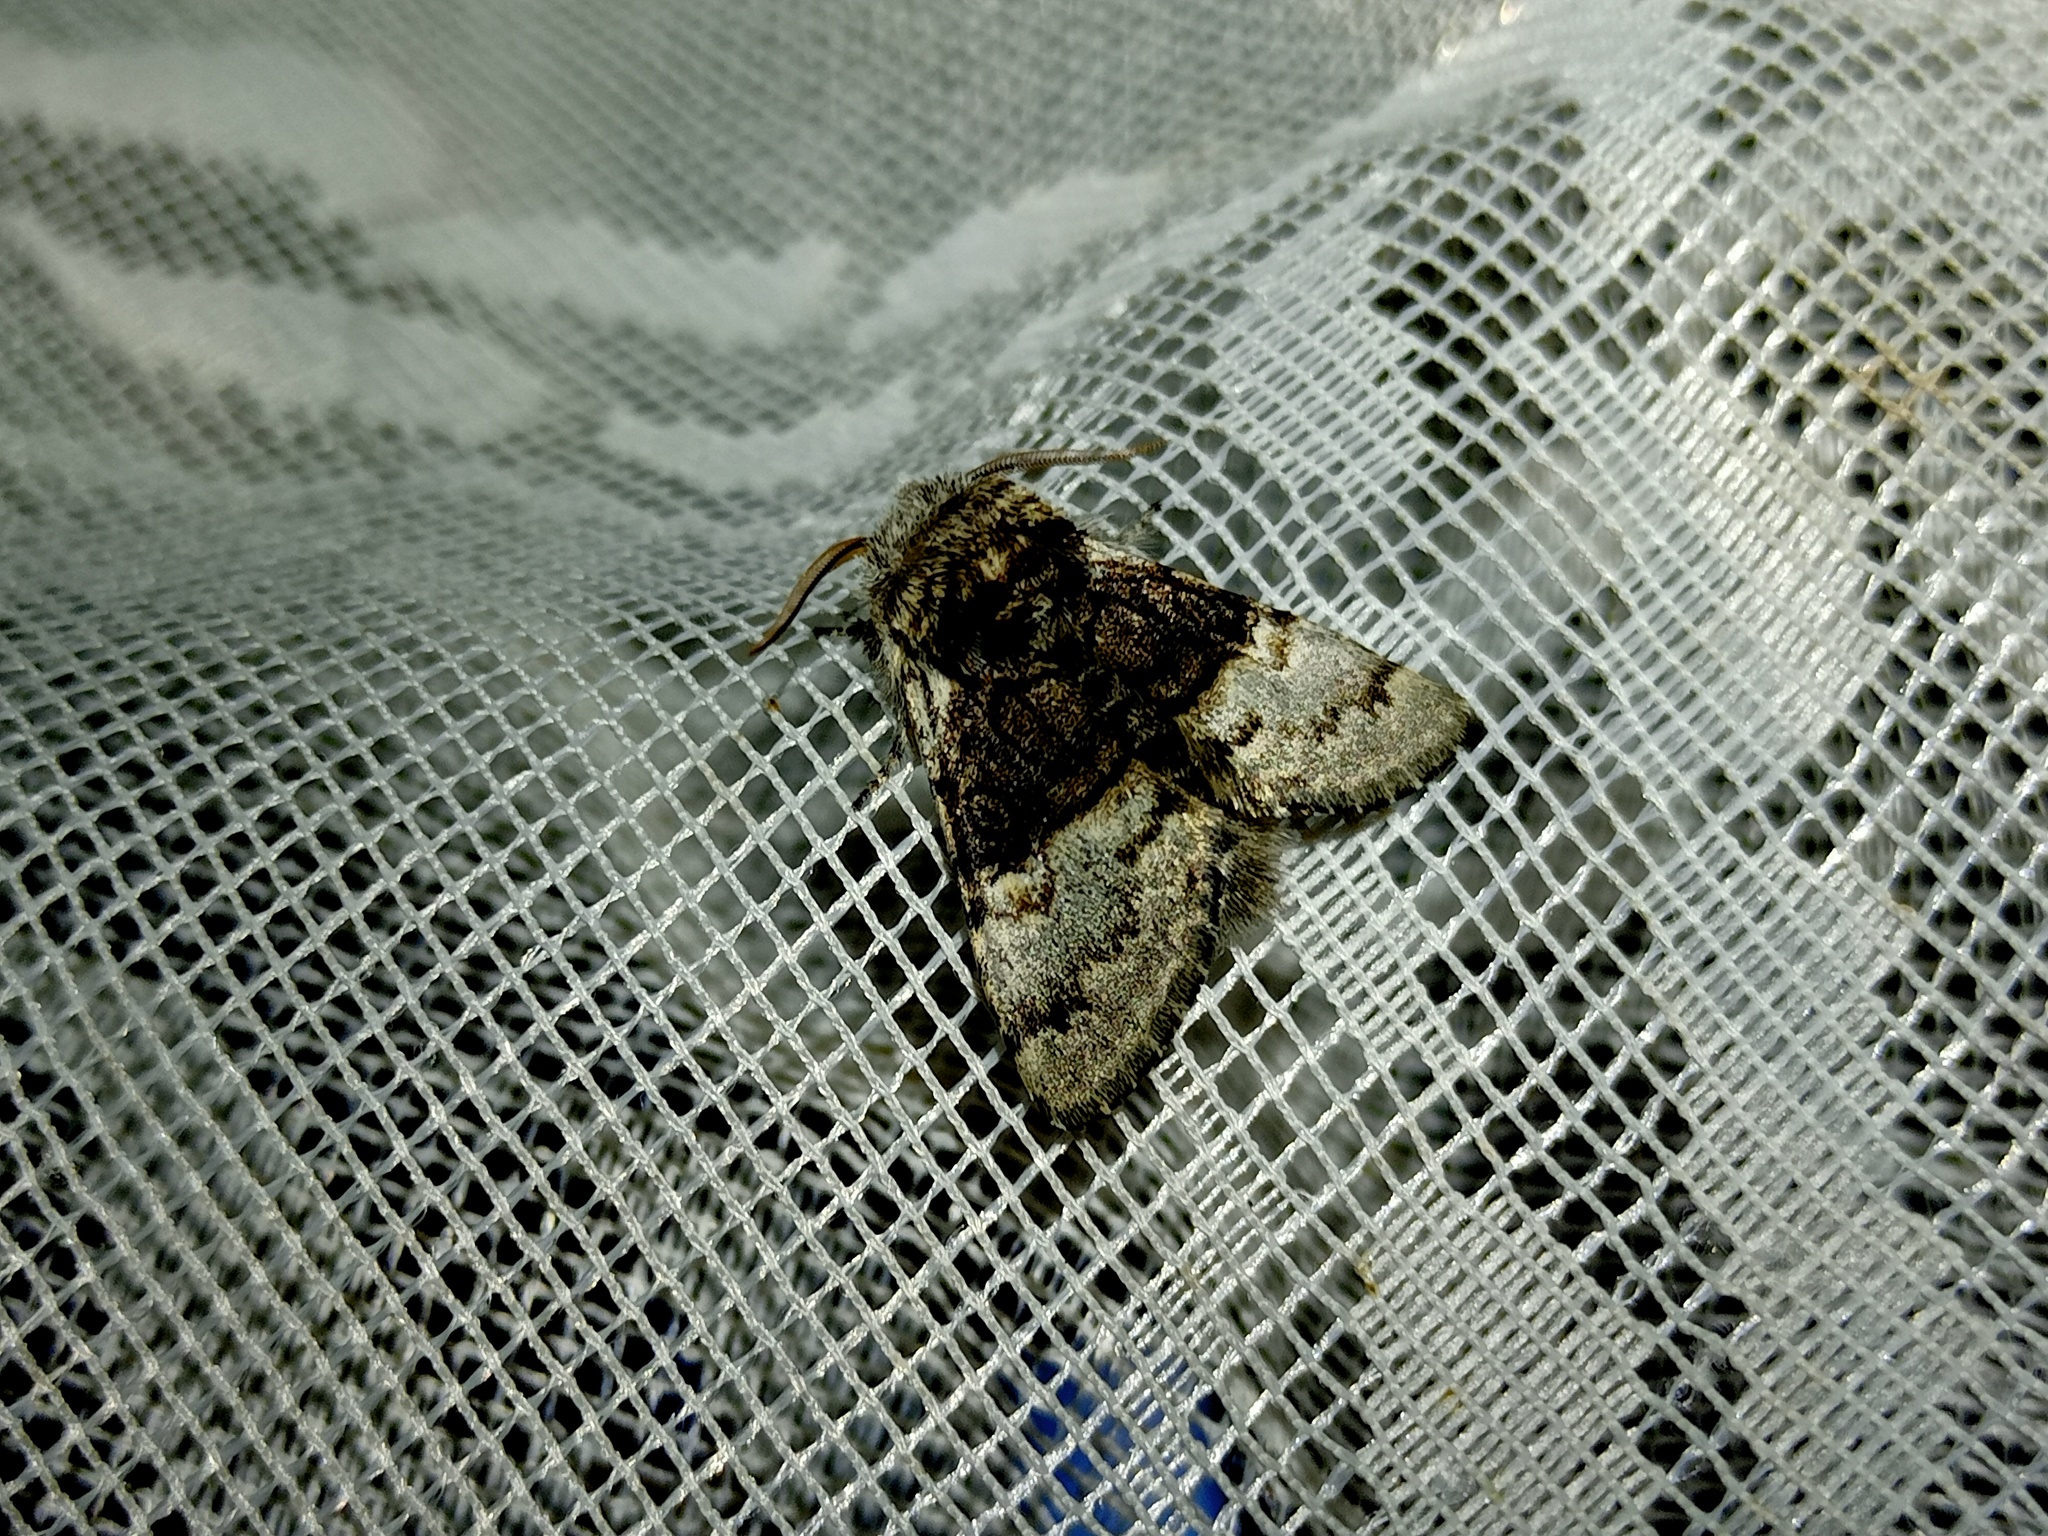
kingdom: Animalia
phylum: Arthropoda
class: Insecta
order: Lepidoptera
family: Noctuidae
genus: Colocasia
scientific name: Colocasia coryli
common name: Nut-tree tussock
